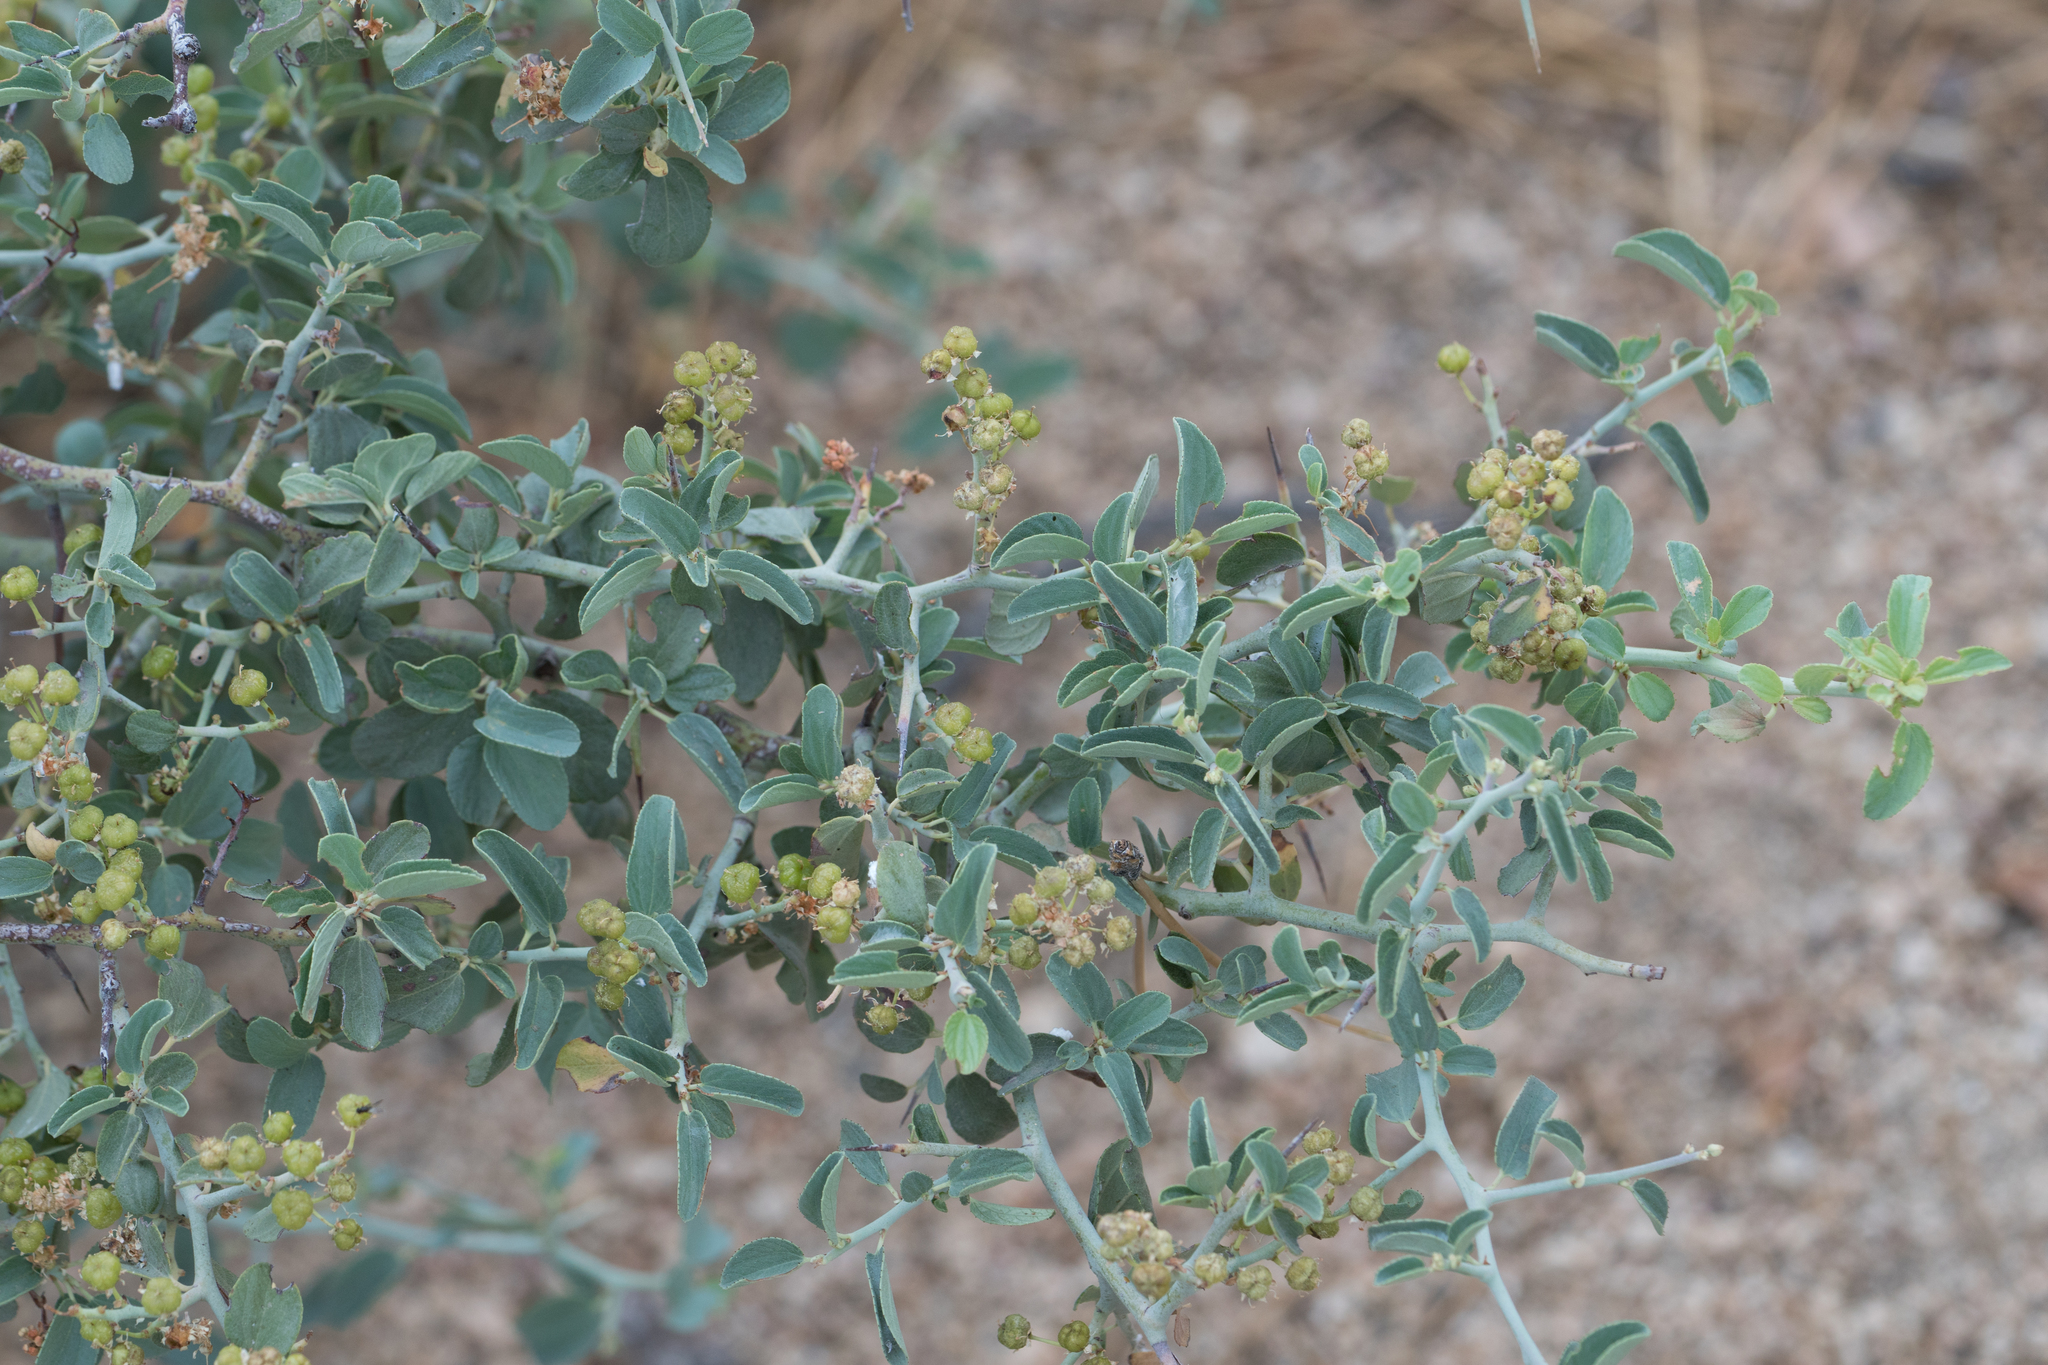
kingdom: Plantae
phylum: Tracheophyta
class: Magnoliopsida
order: Rosales
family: Rhamnaceae
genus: Ceanothus
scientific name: Ceanothus cordulatus
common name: Mountain whitethorn
